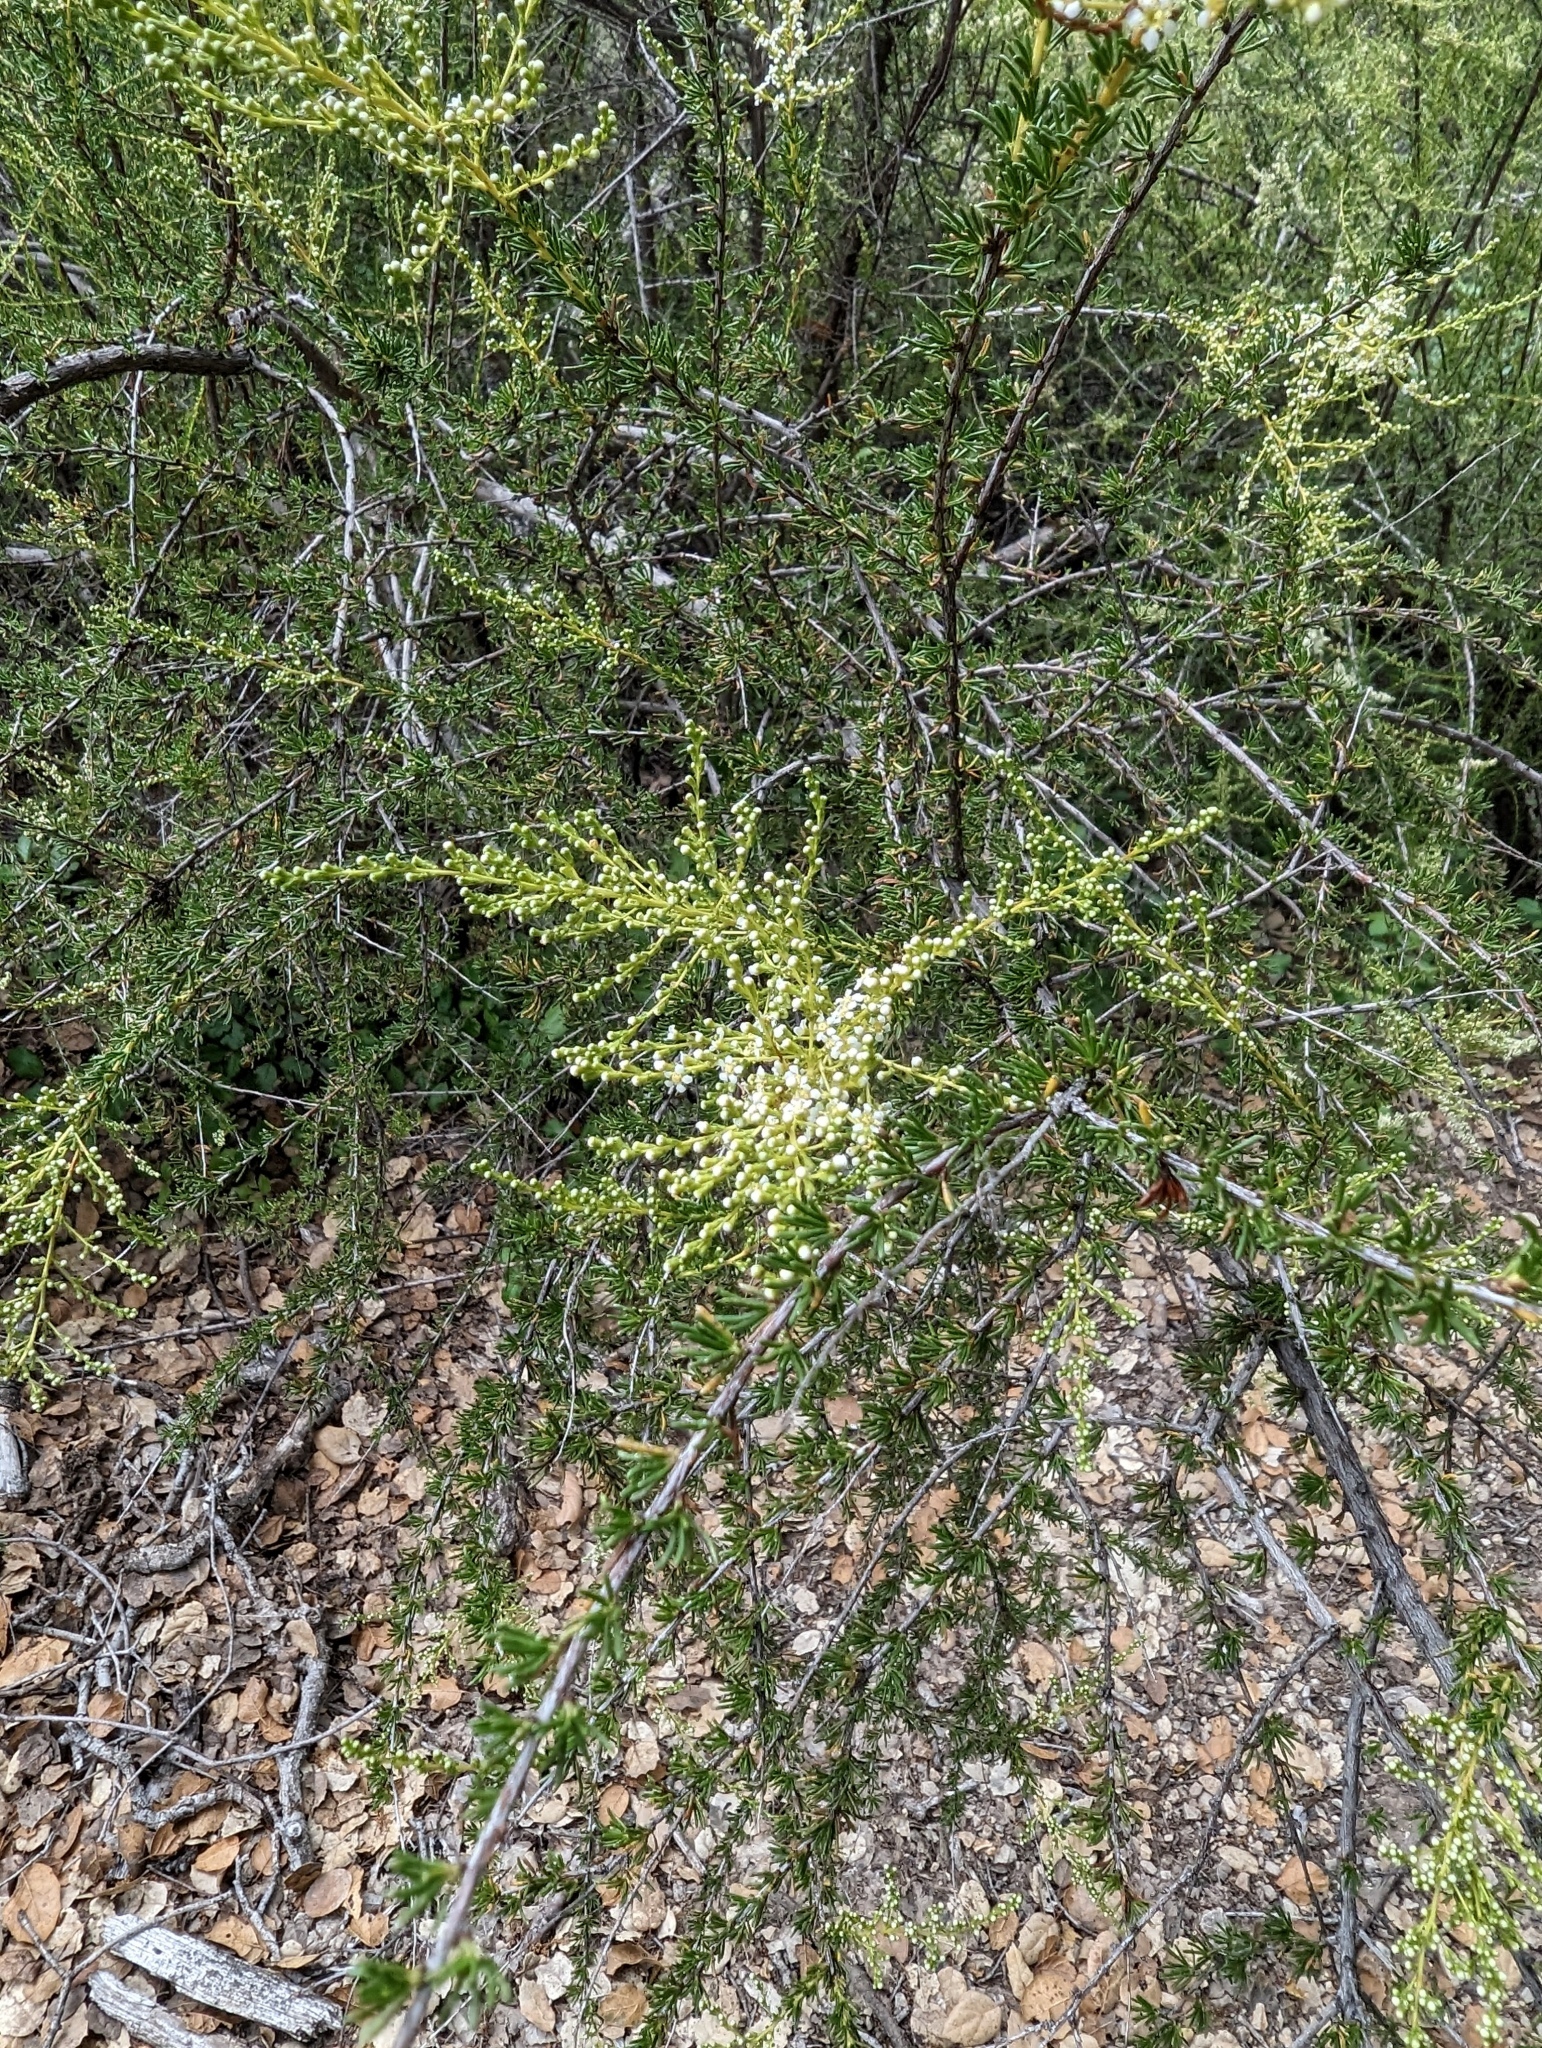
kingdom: Plantae
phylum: Tracheophyta
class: Magnoliopsida
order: Rosales
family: Rosaceae
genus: Adenostoma
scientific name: Adenostoma fasciculatum
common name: Chamise
